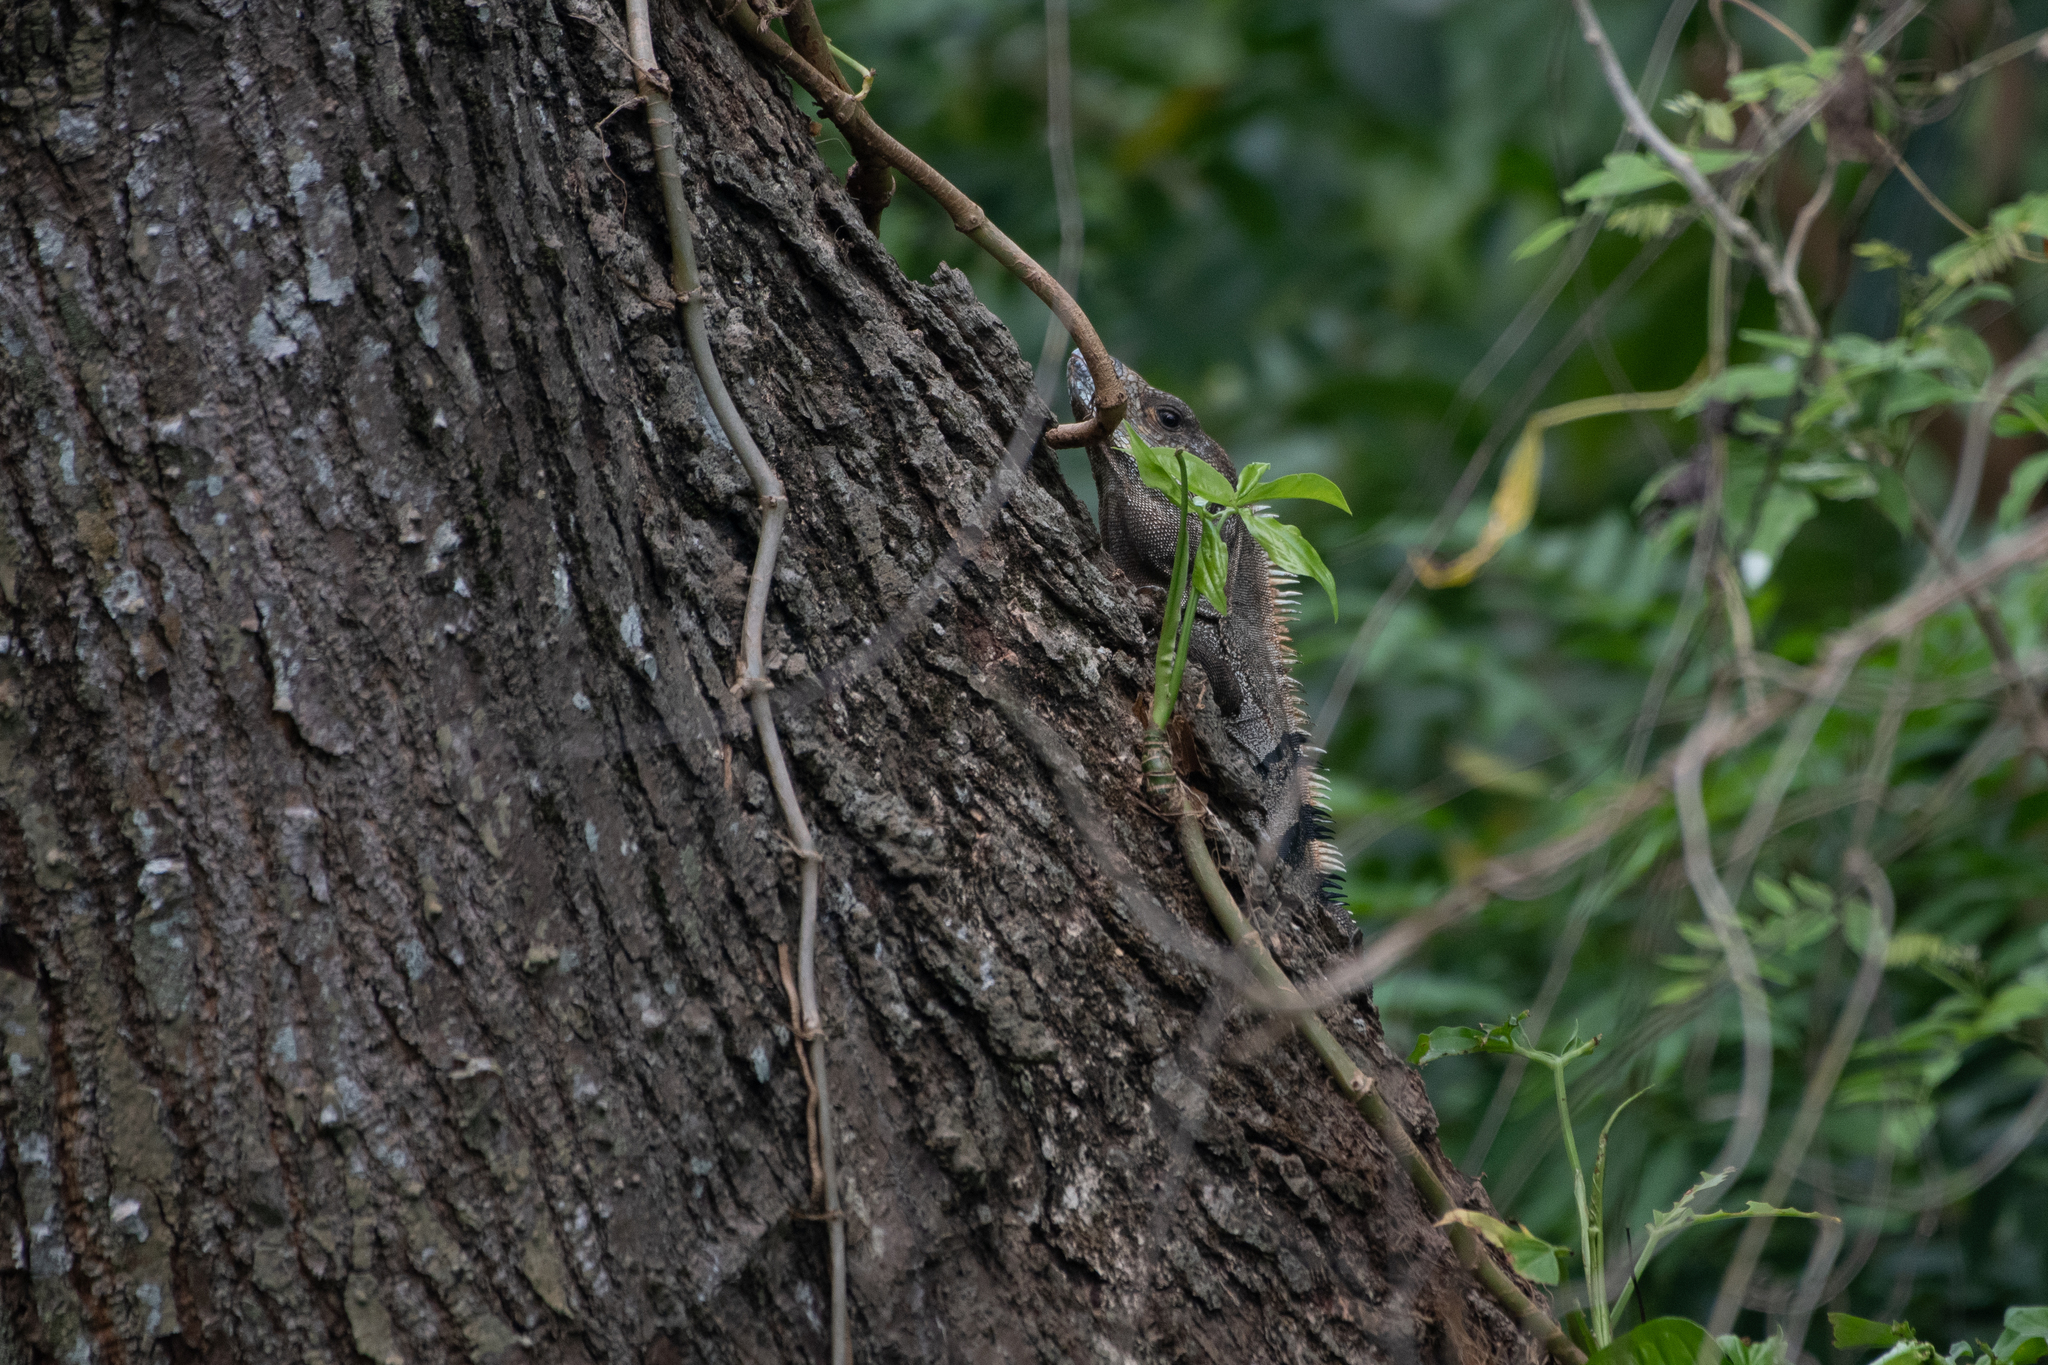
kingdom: Animalia
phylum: Chordata
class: Squamata
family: Iguanidae
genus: Ctenosaura
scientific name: Ctenosaura similis
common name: Black spiny-tailed iguana
